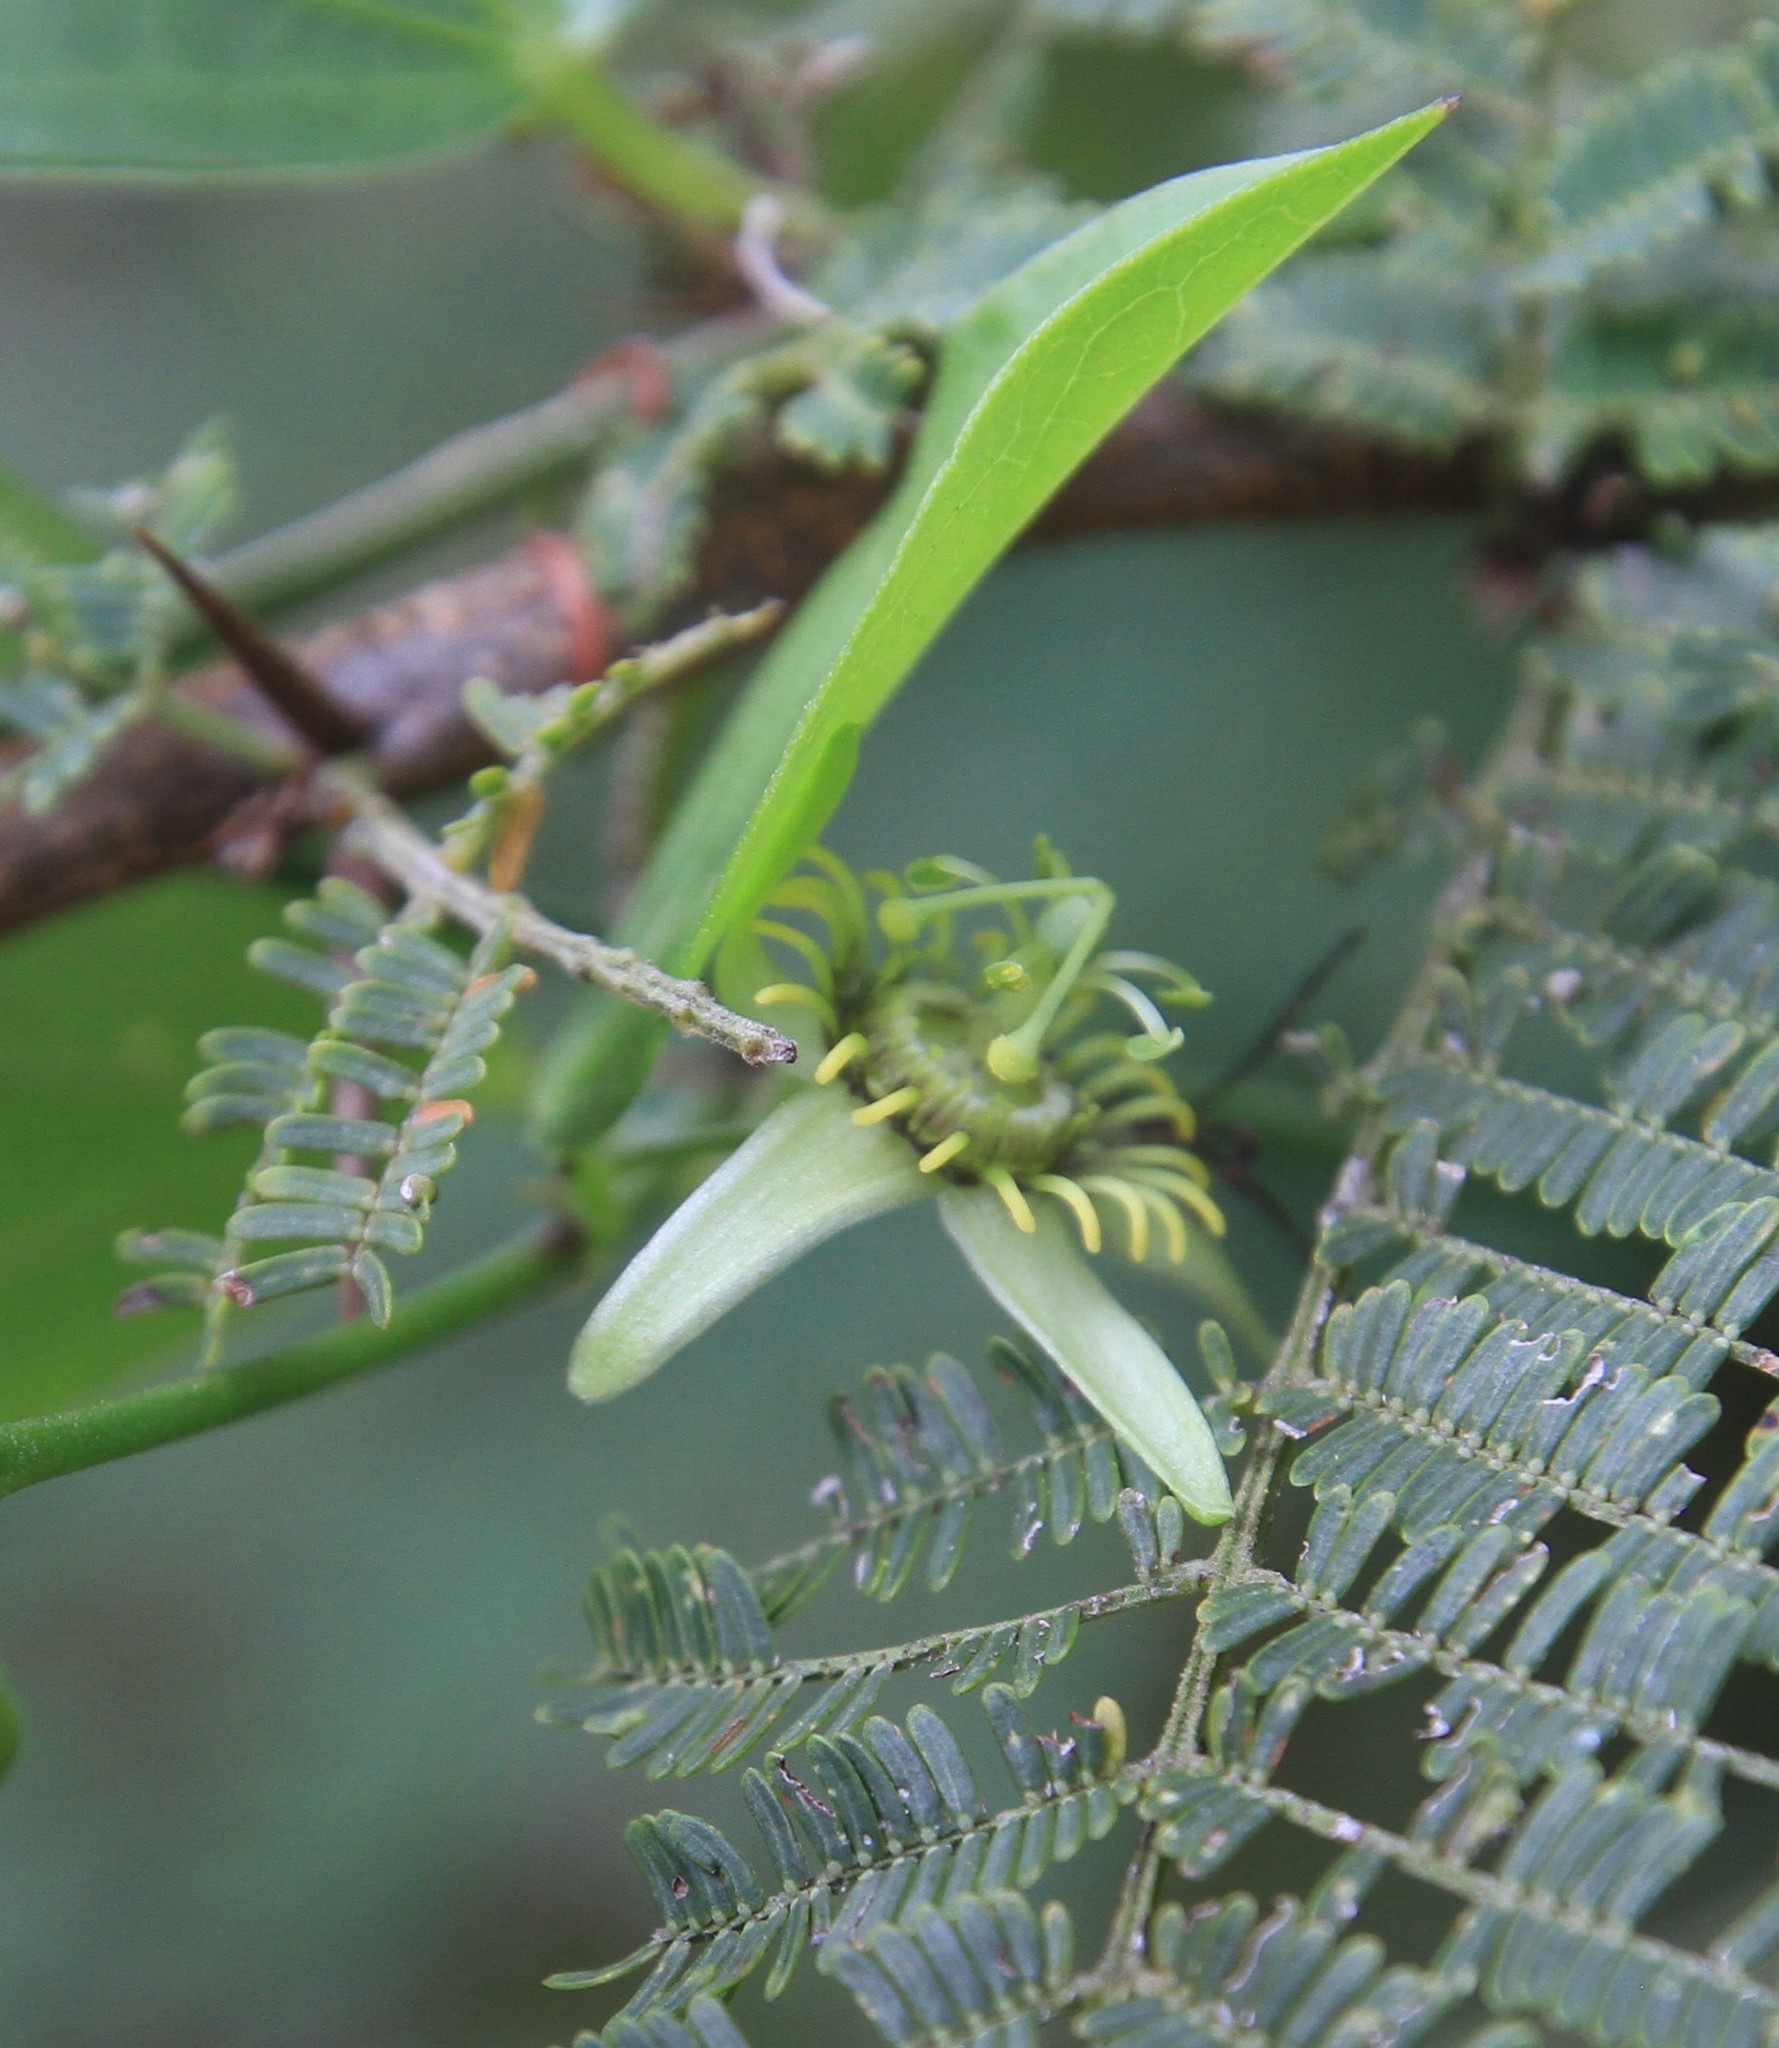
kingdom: Plantae
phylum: Tracheophyta
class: Magnoliopsida
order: Malpighiales
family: Passifloraceae
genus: Passiflora
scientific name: Passiflora pallida
